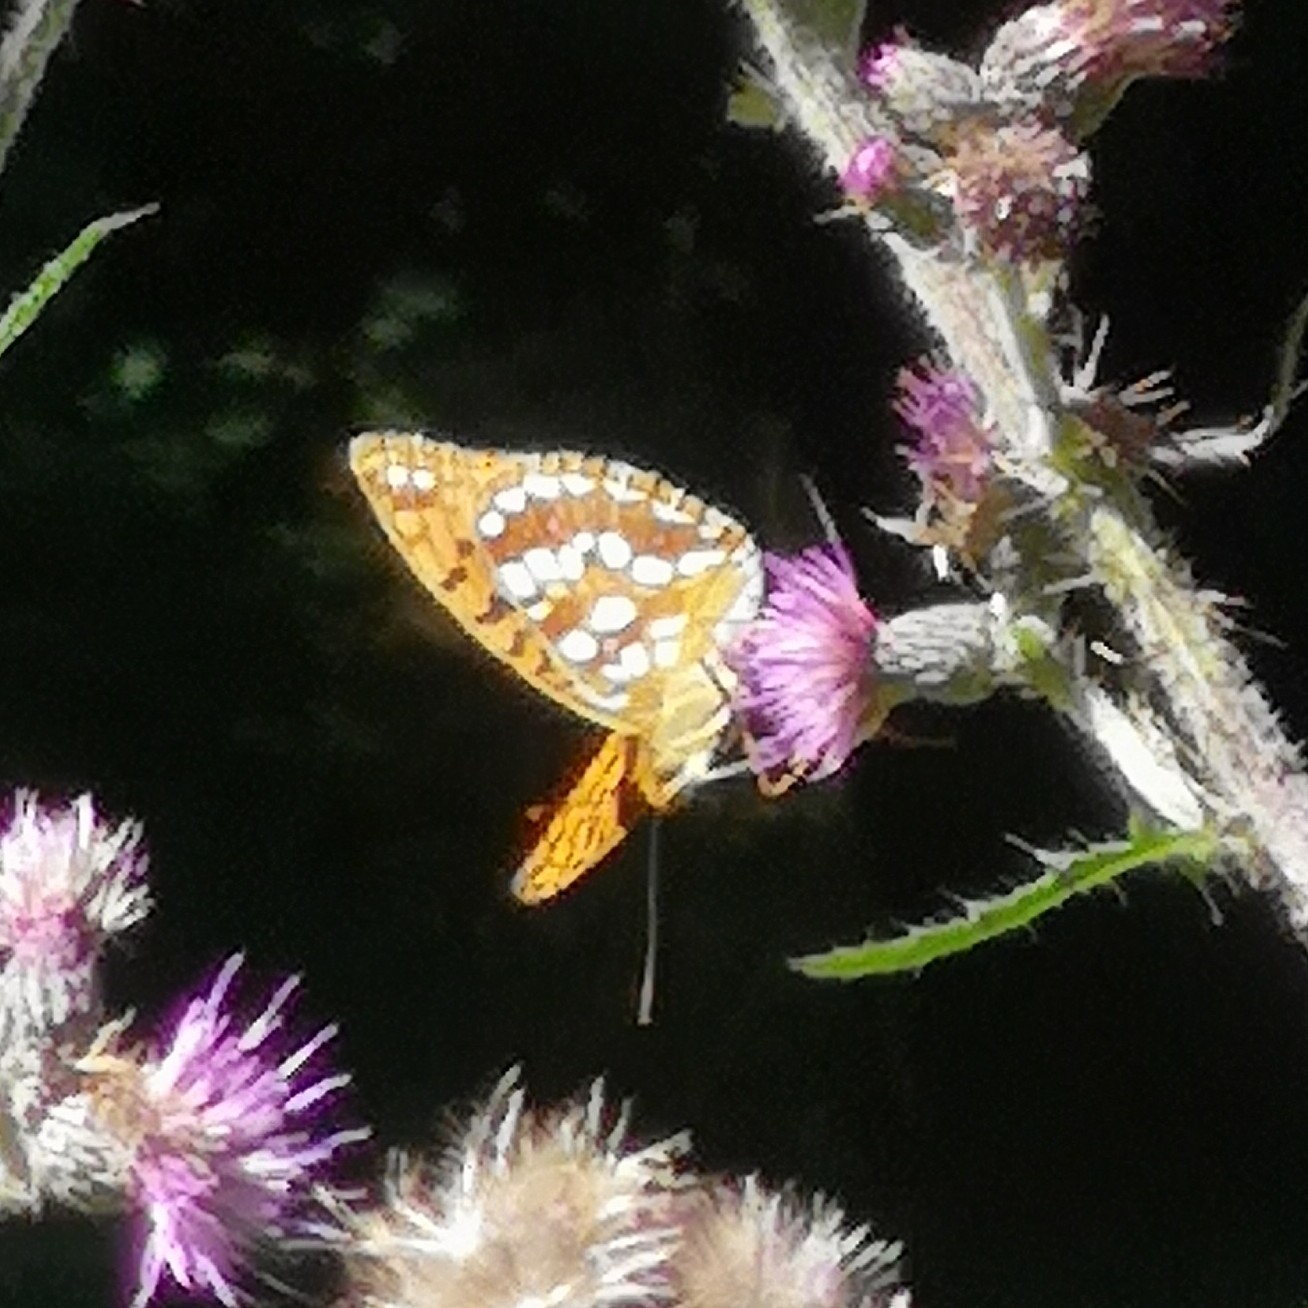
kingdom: Animalia
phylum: Arthropoda
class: Insecta
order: Lepidoptera
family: Nymphalidae
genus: Fabriciana
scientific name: Fabriciana adippe
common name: High brown fritillary
